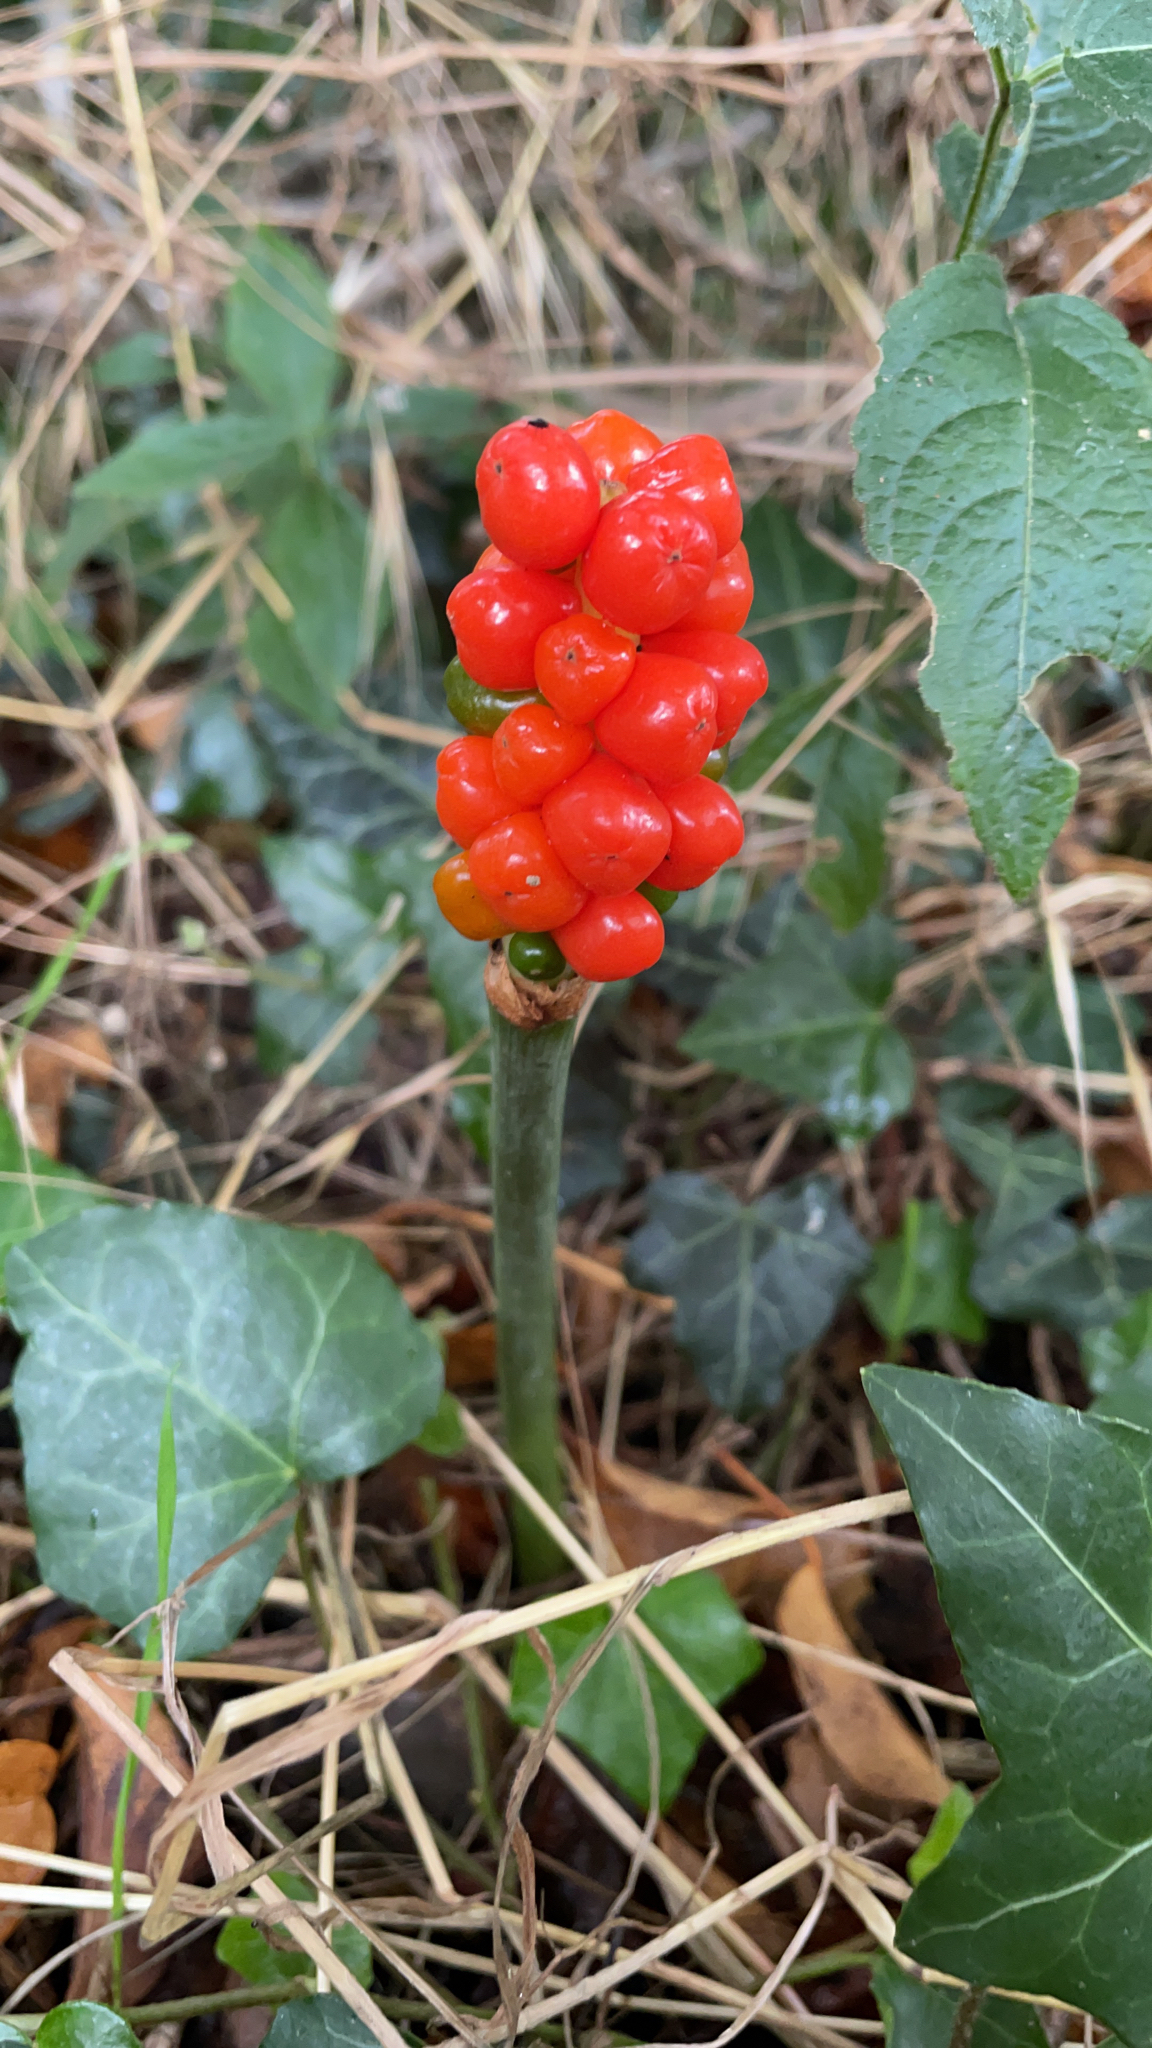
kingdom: Plantae
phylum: Tracheophyta
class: Liliopsida
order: Alismatales
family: Araceae
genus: Arum
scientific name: Arum maculatum
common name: Lords-and-ladies
